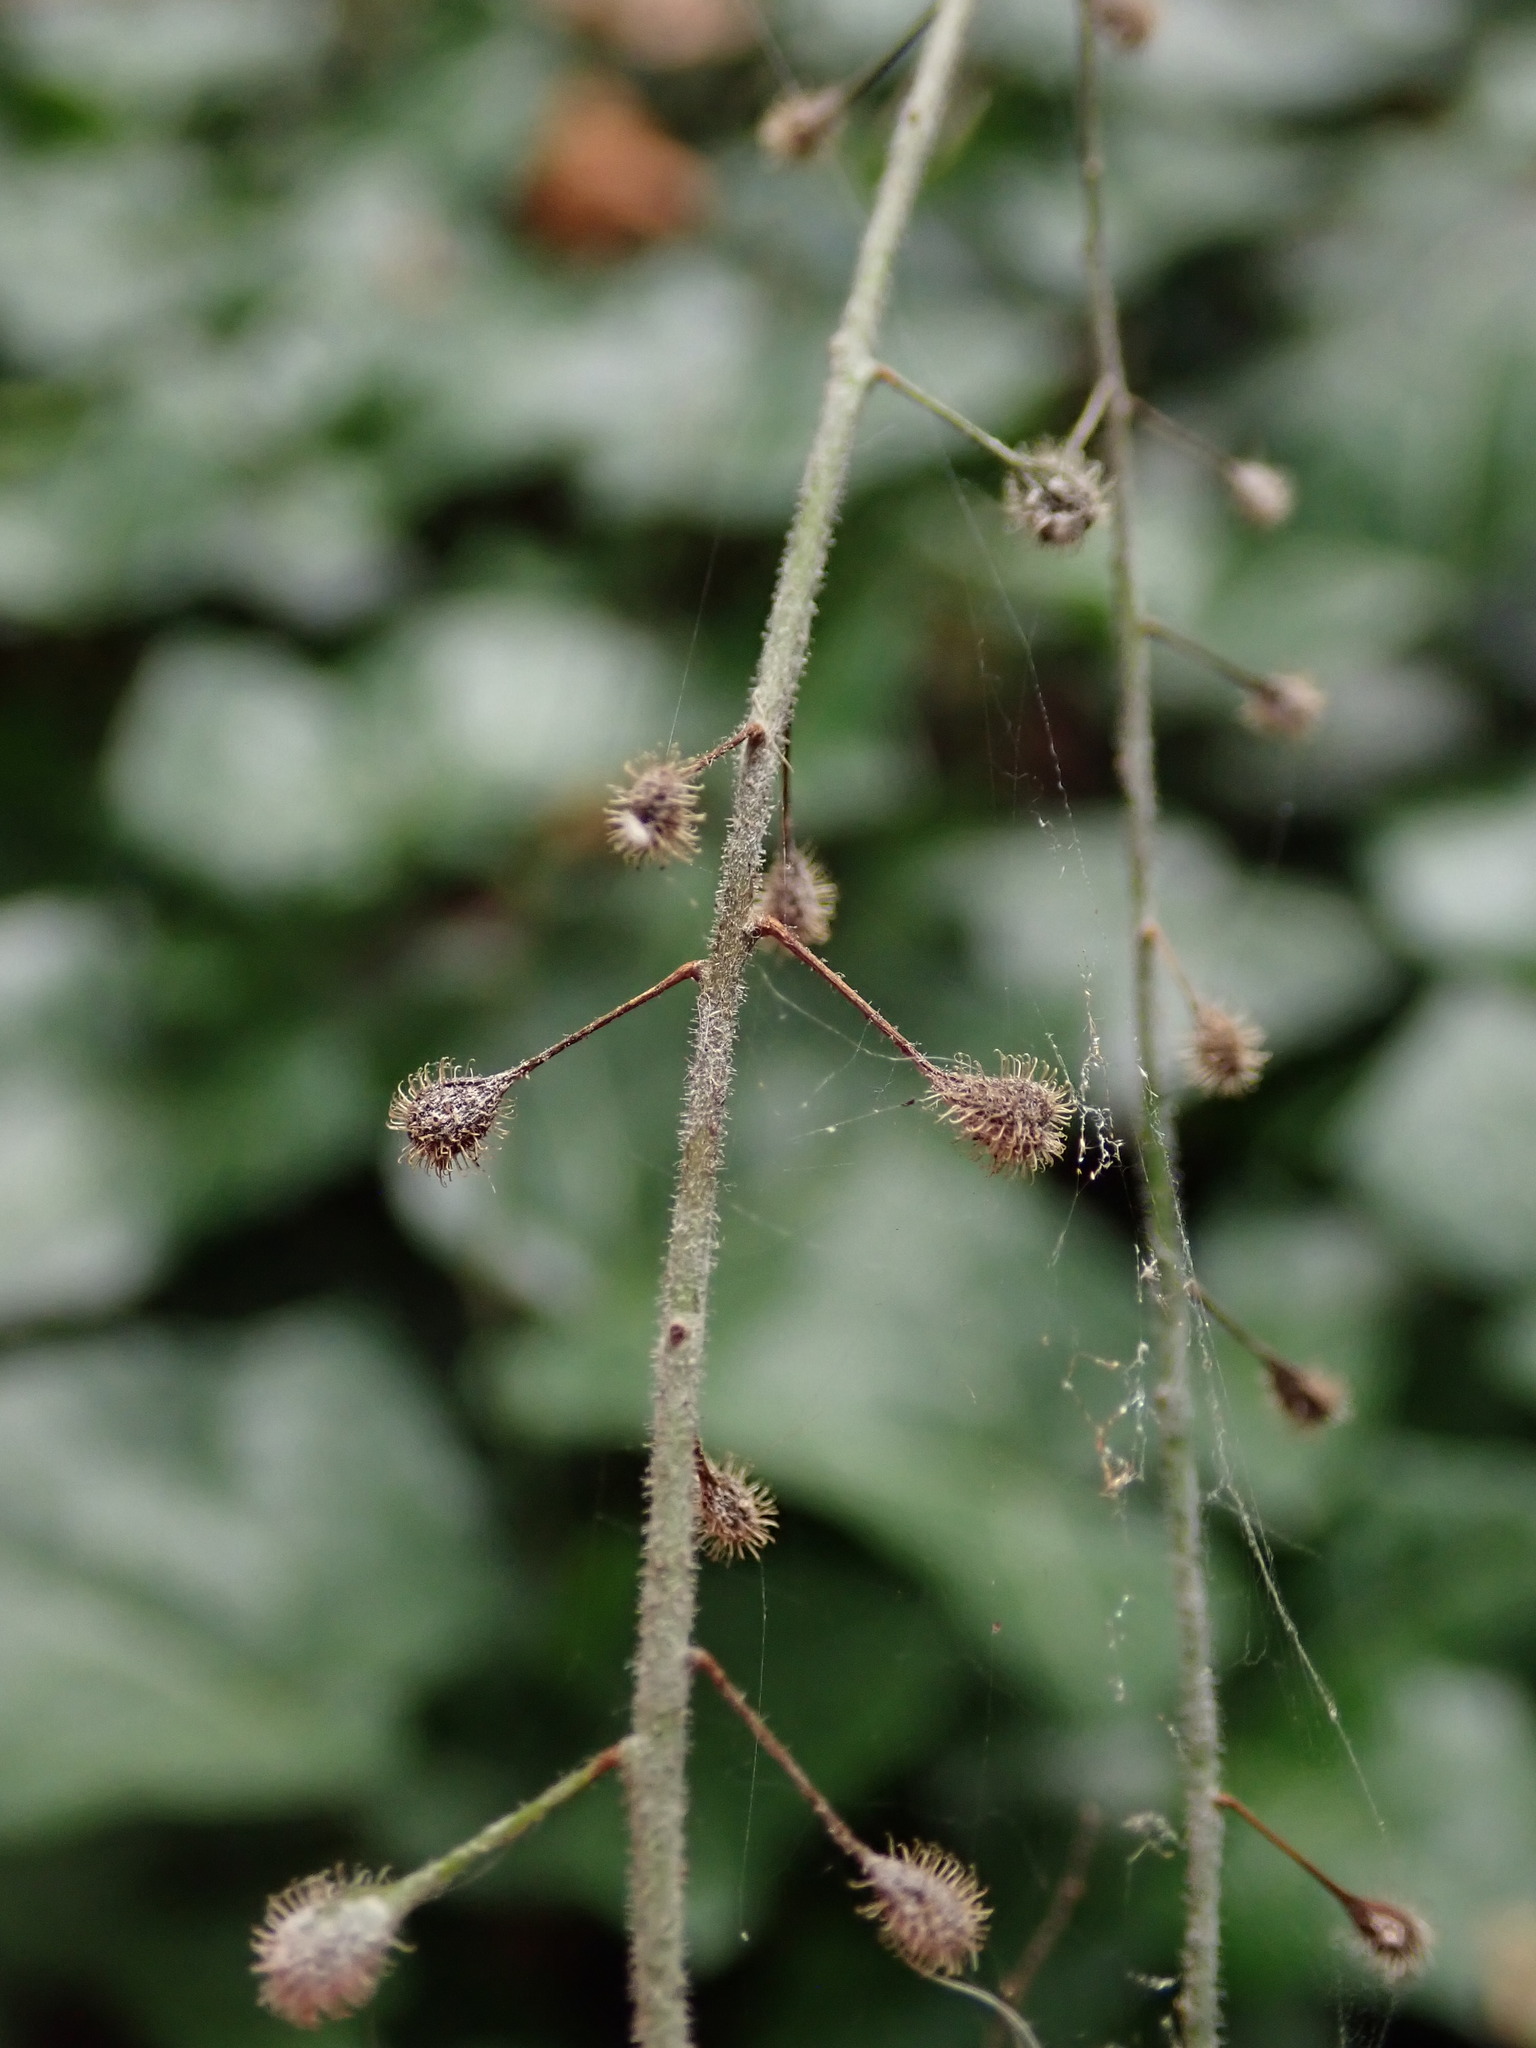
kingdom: Plantae
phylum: Tracheophyta
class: Magnoliopsida
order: Myrtales
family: Onagraceae
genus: Circaea
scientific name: Circaea lutetiana
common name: Enchanter's-nightshade
